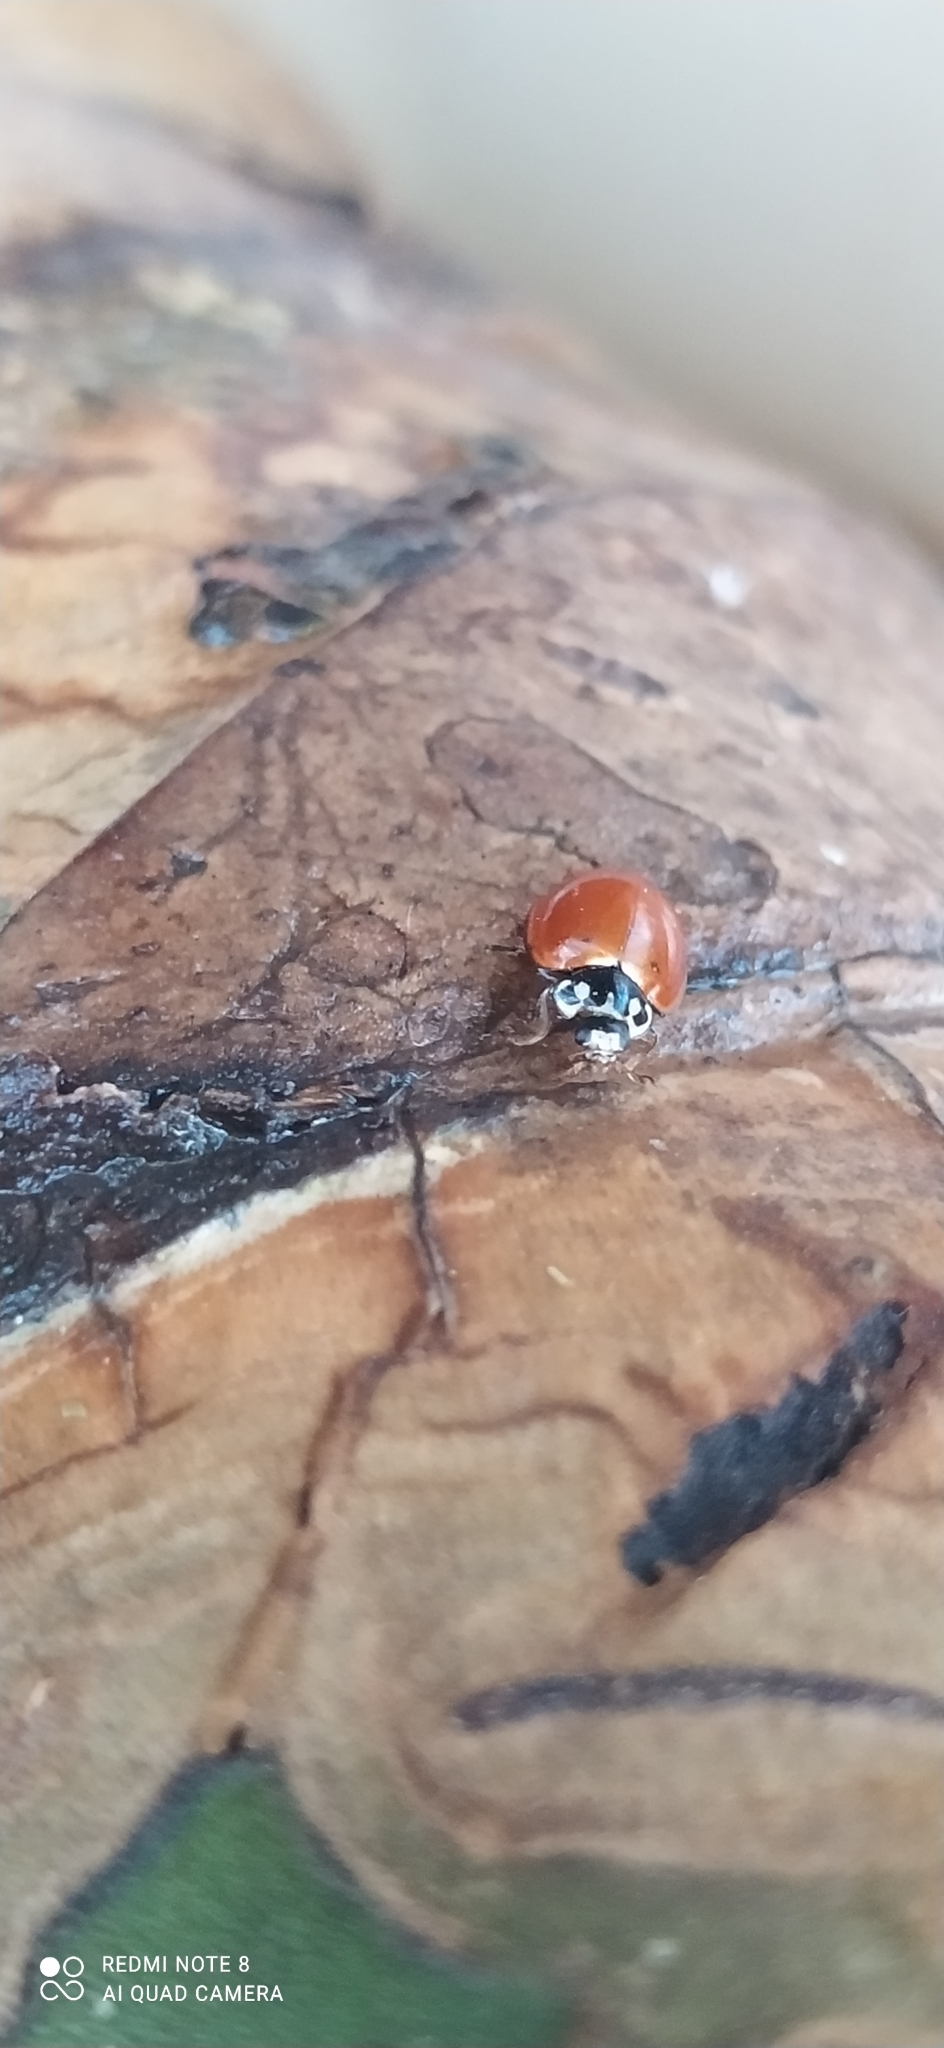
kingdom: Animalia
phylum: Arthropoda
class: Insecta
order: Coleoptera
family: Coccinellidae
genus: Cycloneda
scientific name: Cycloneda sanguinea
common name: Ladybird beetle
